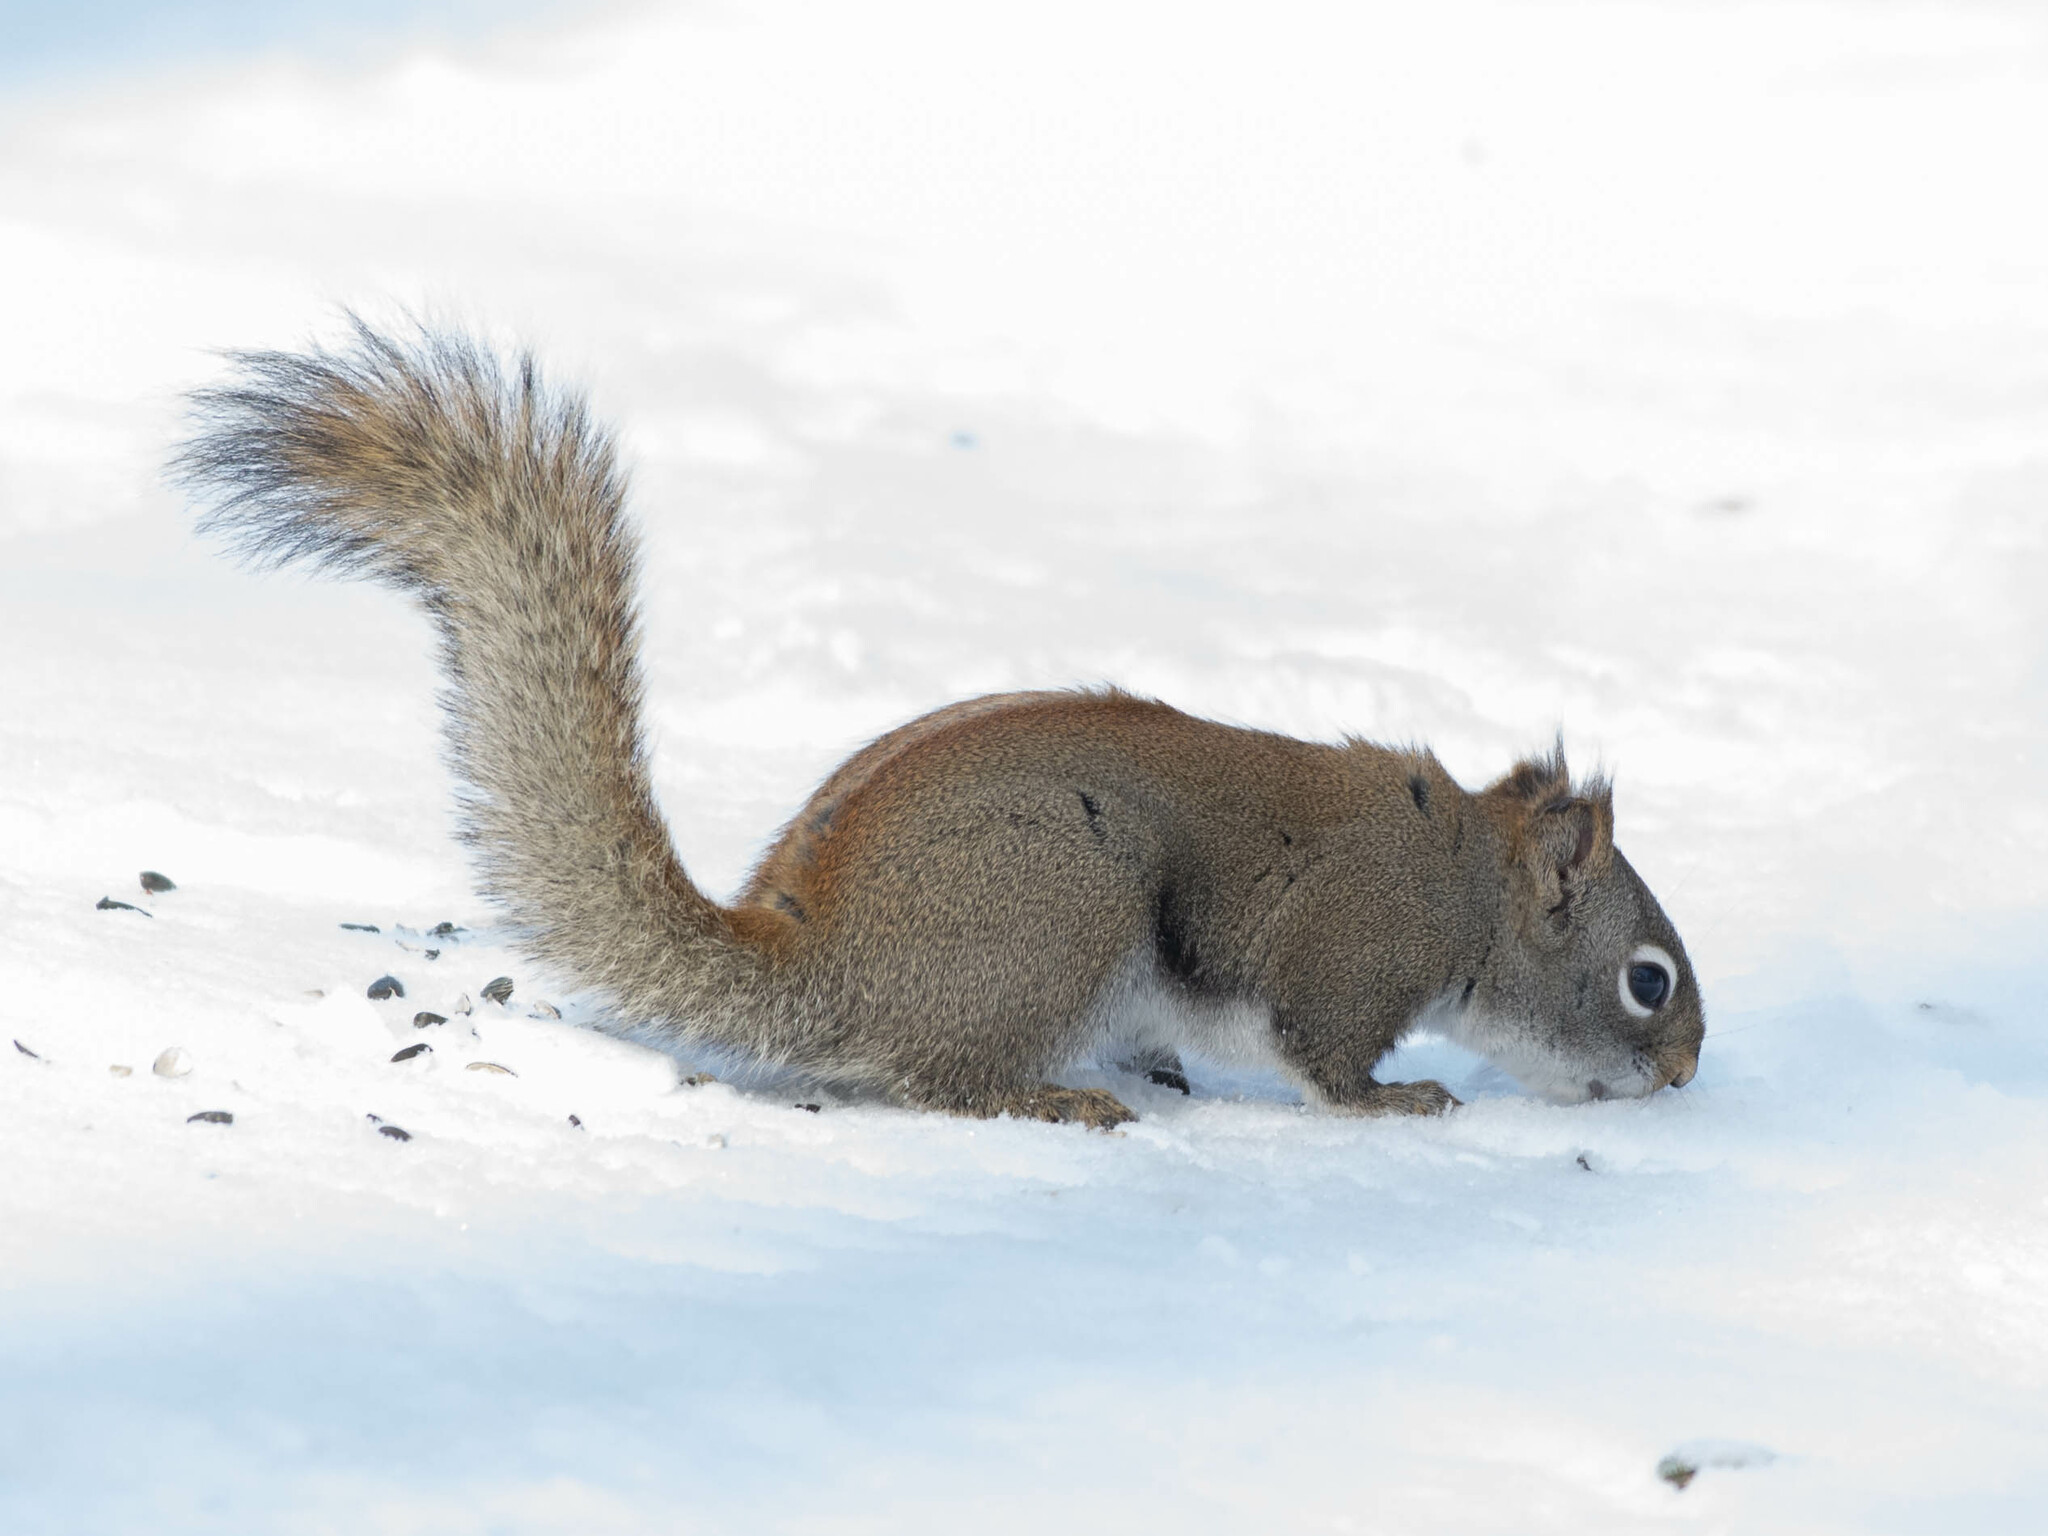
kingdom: Animalia
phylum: Chordata
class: Mammalia
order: Rodentia
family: Sciuridae
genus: Tamiasciurus
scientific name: Tamiasciurus hudsonicus
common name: Red squirrel
